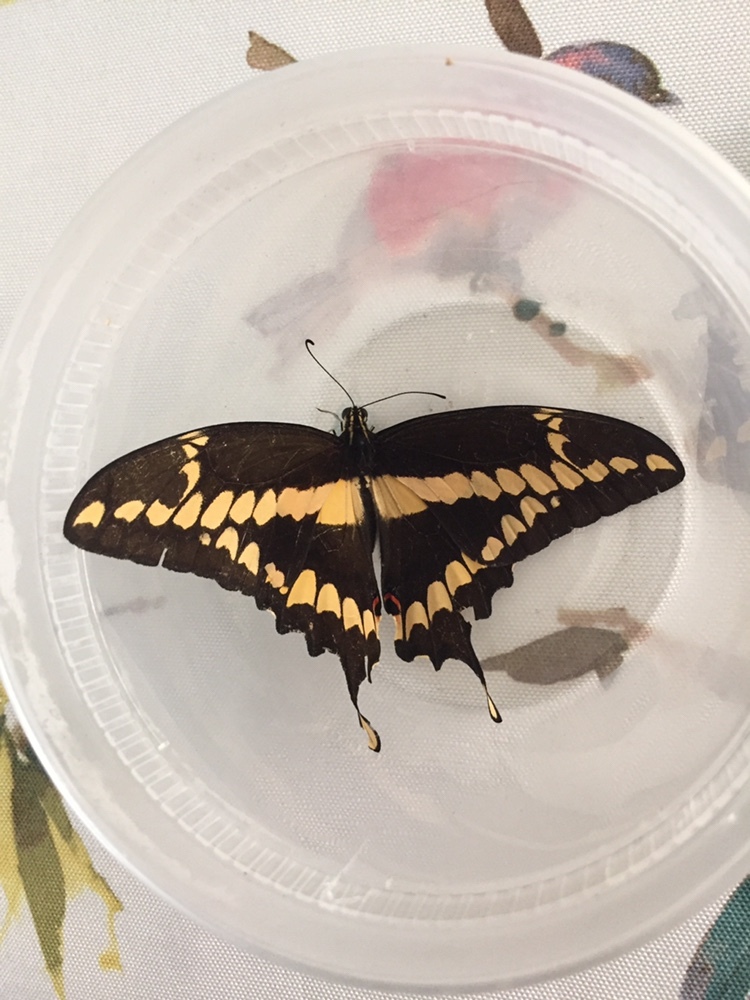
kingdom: Animalia
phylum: Arthropoda
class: Insecta
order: Lepidoptera
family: Papilionidae
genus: Papilio
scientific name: Papilio rumiko
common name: Western giant swallowtail
